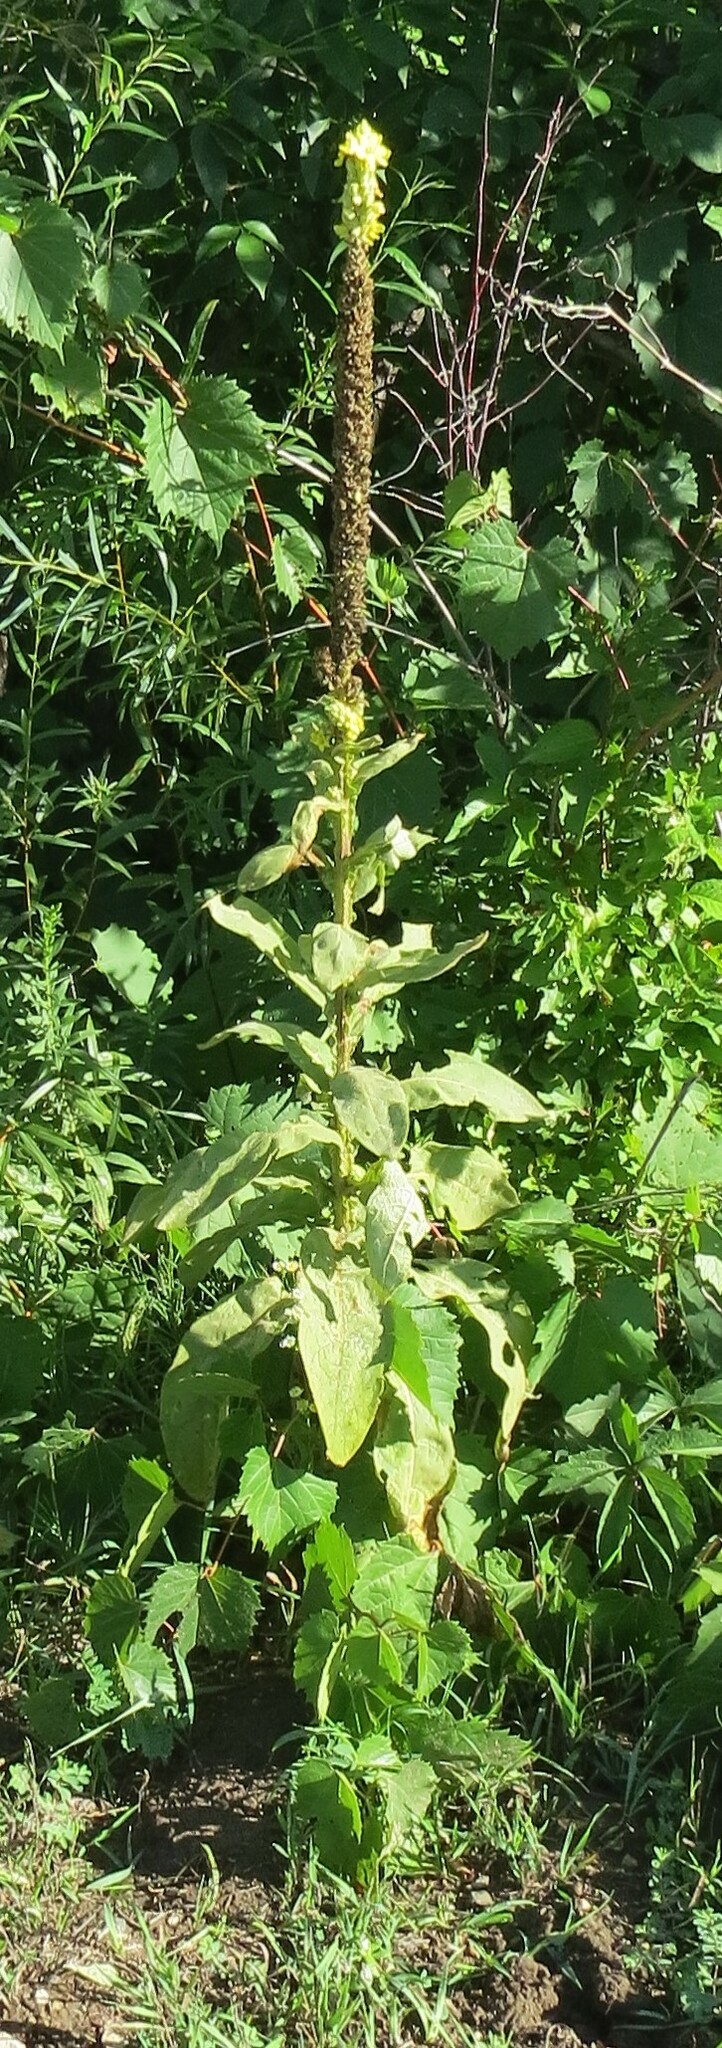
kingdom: Plantae
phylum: Tracheophyta
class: Magnoliopsida
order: Lamiales
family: Scrophulariaceae
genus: Verbascum
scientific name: Verbascum thapsus
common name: Common mullein
